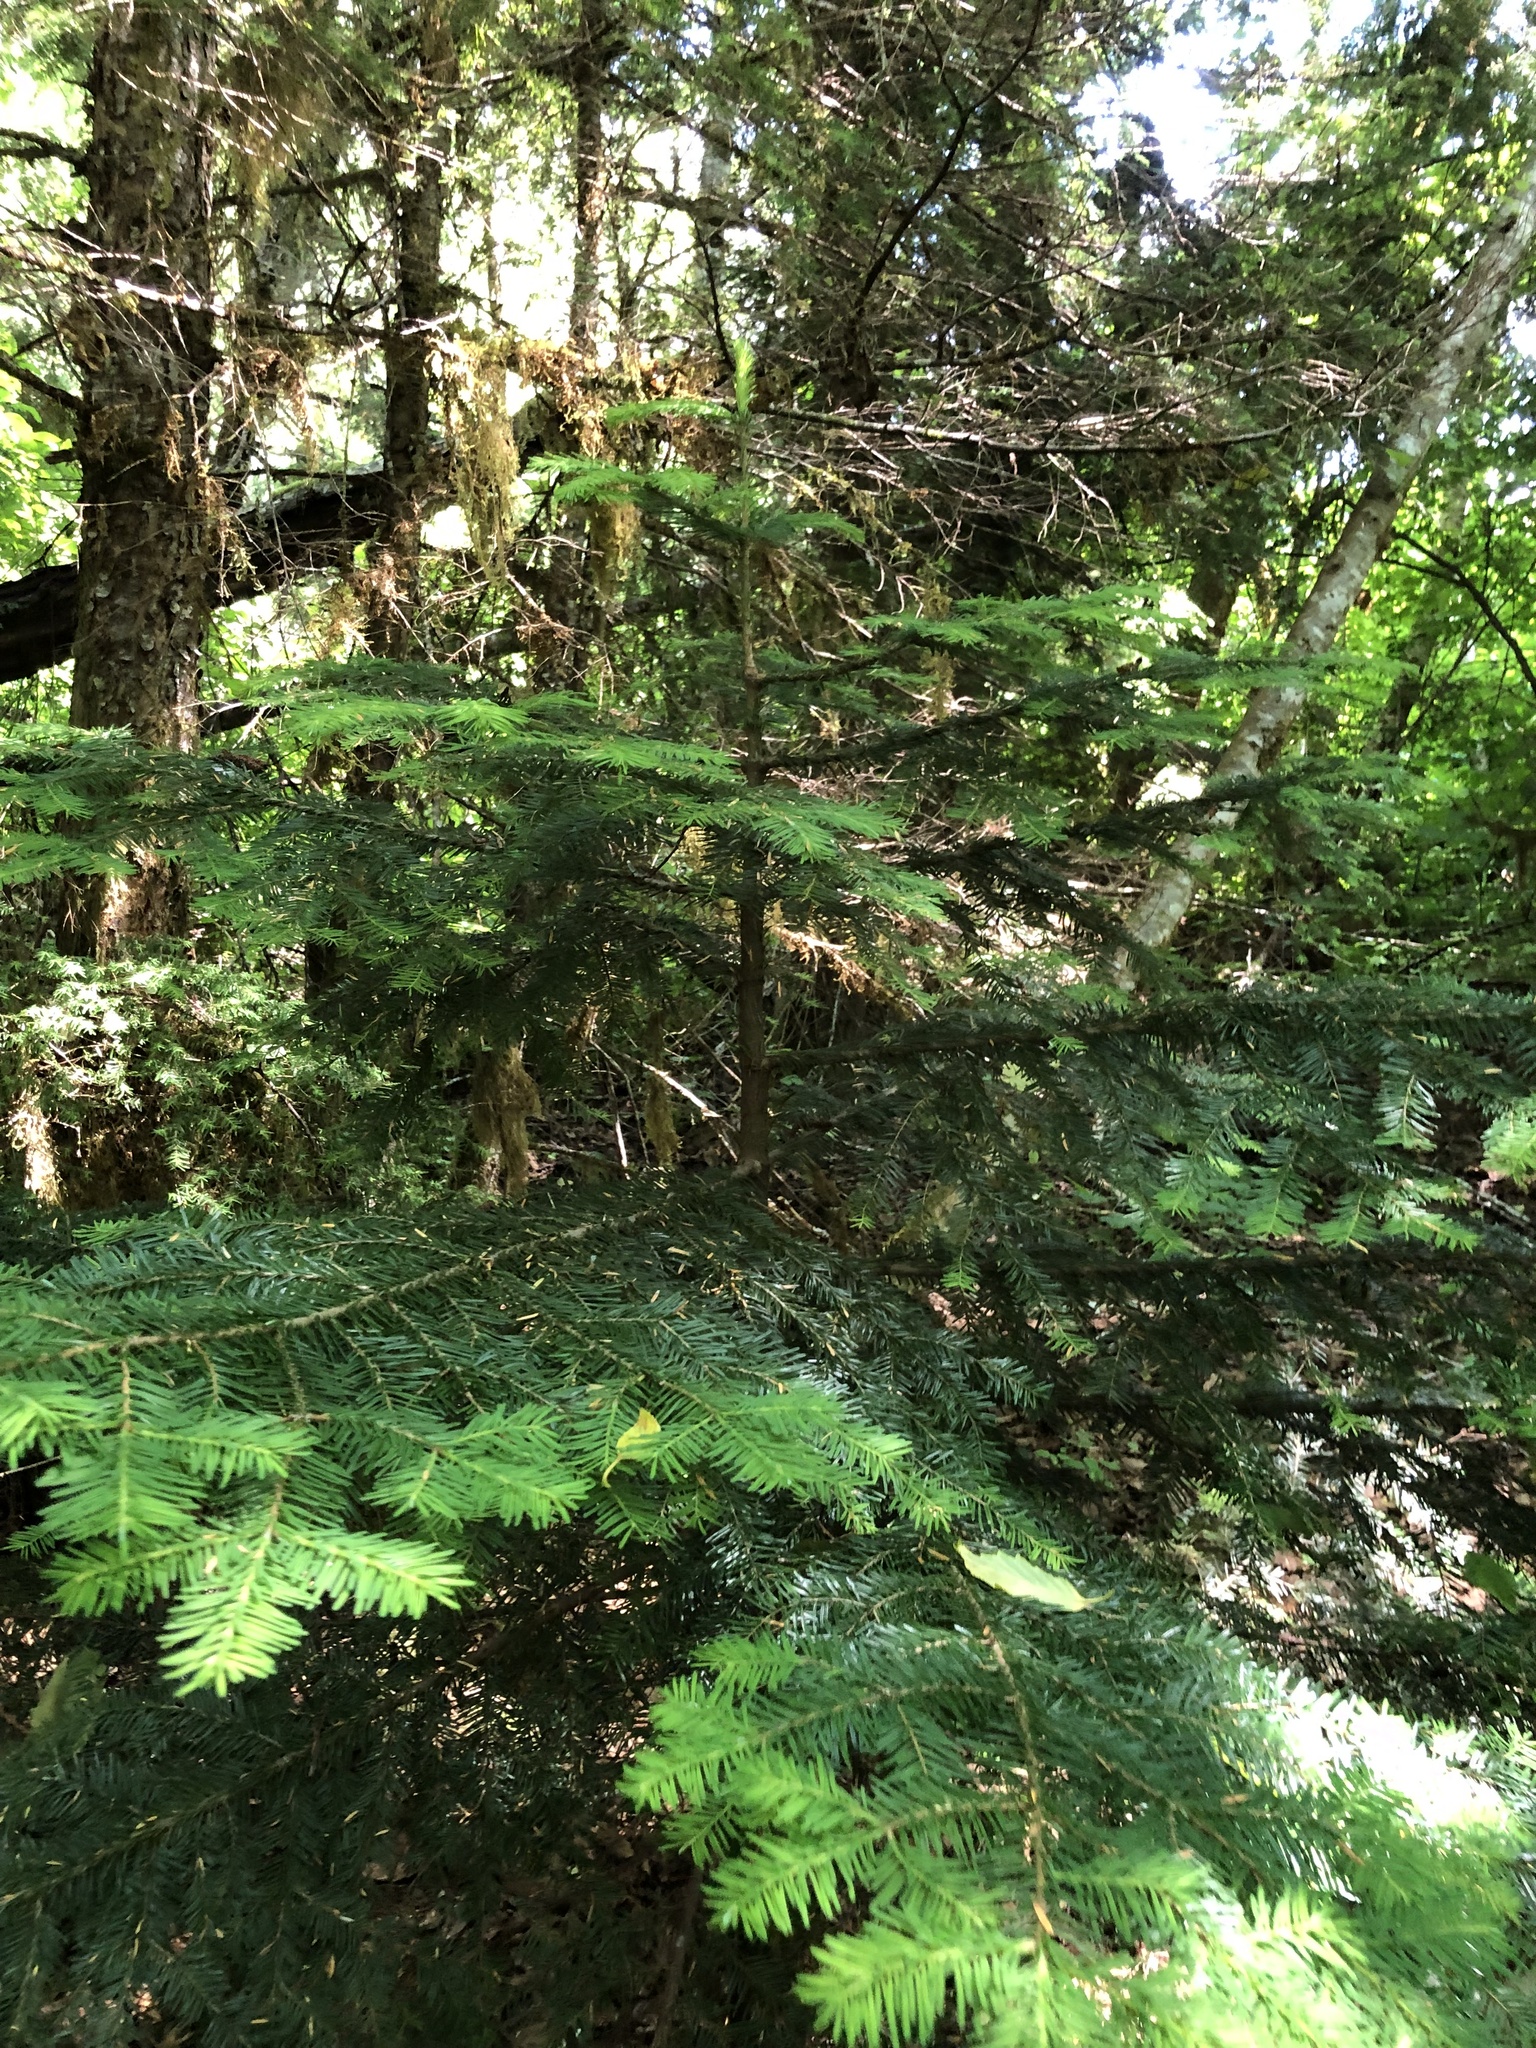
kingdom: Plantae
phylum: Tracheophyta
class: Pinopsida
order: Pinales
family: Pinaceae
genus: Abies
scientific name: Abies amabilis
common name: Pacific silver fir
